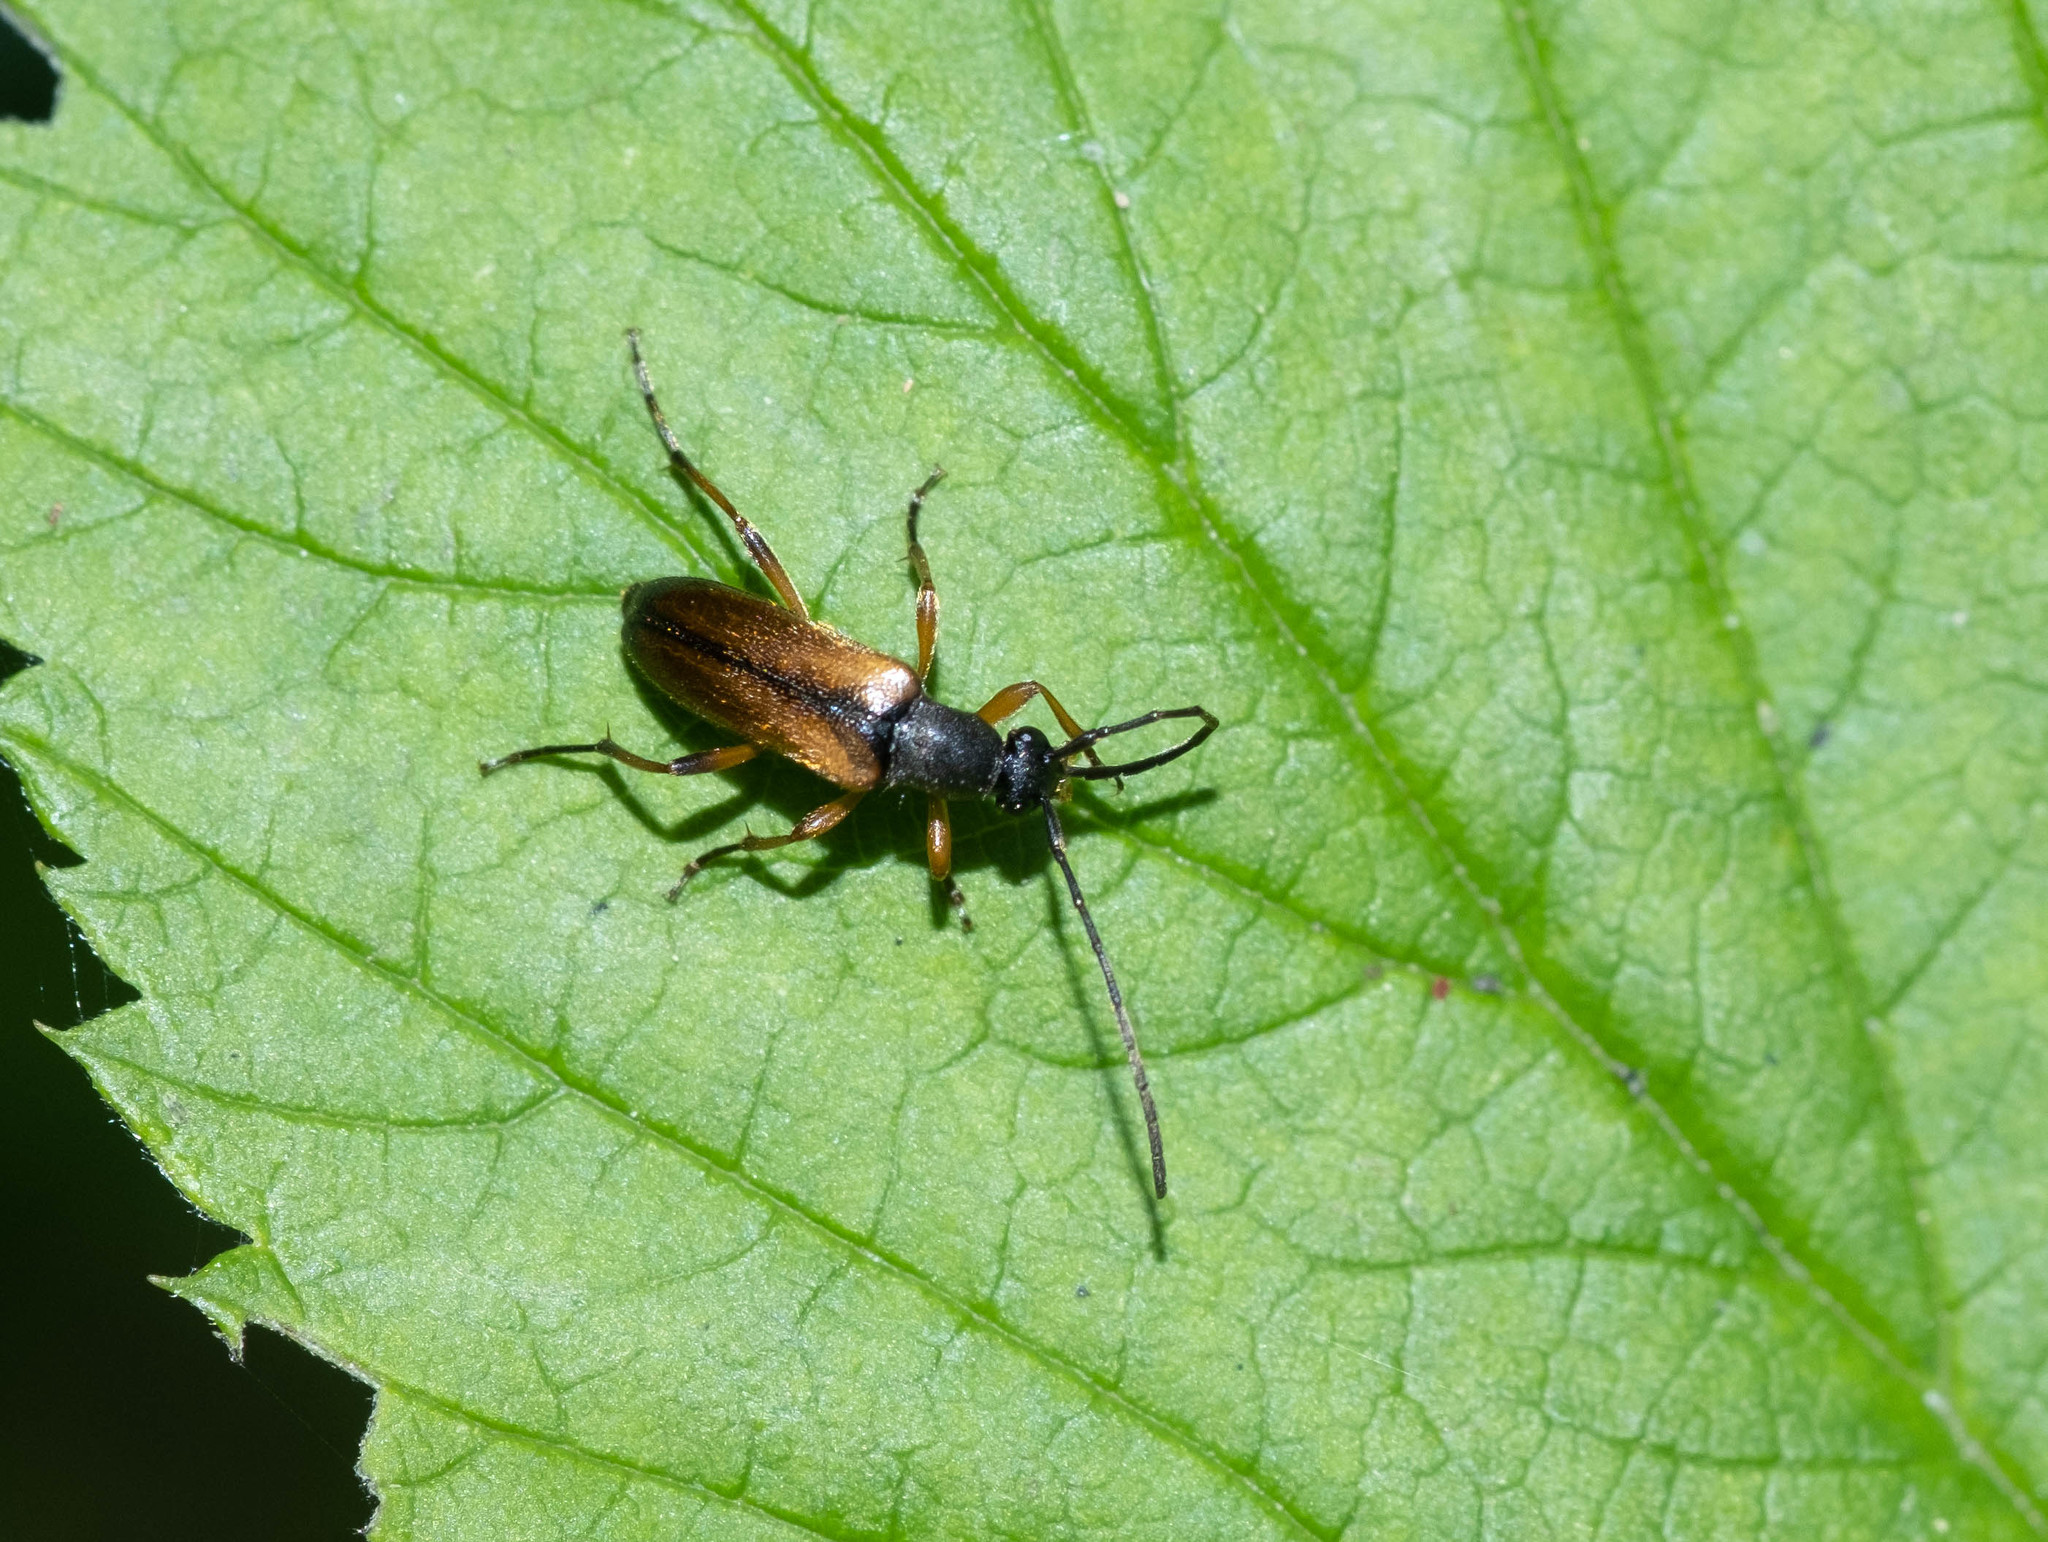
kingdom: Animalia
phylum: Arthropoda
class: Insecta
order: Coleoptera
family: Cerambycidae
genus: Alosterna
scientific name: Alosterna tabacicolor
